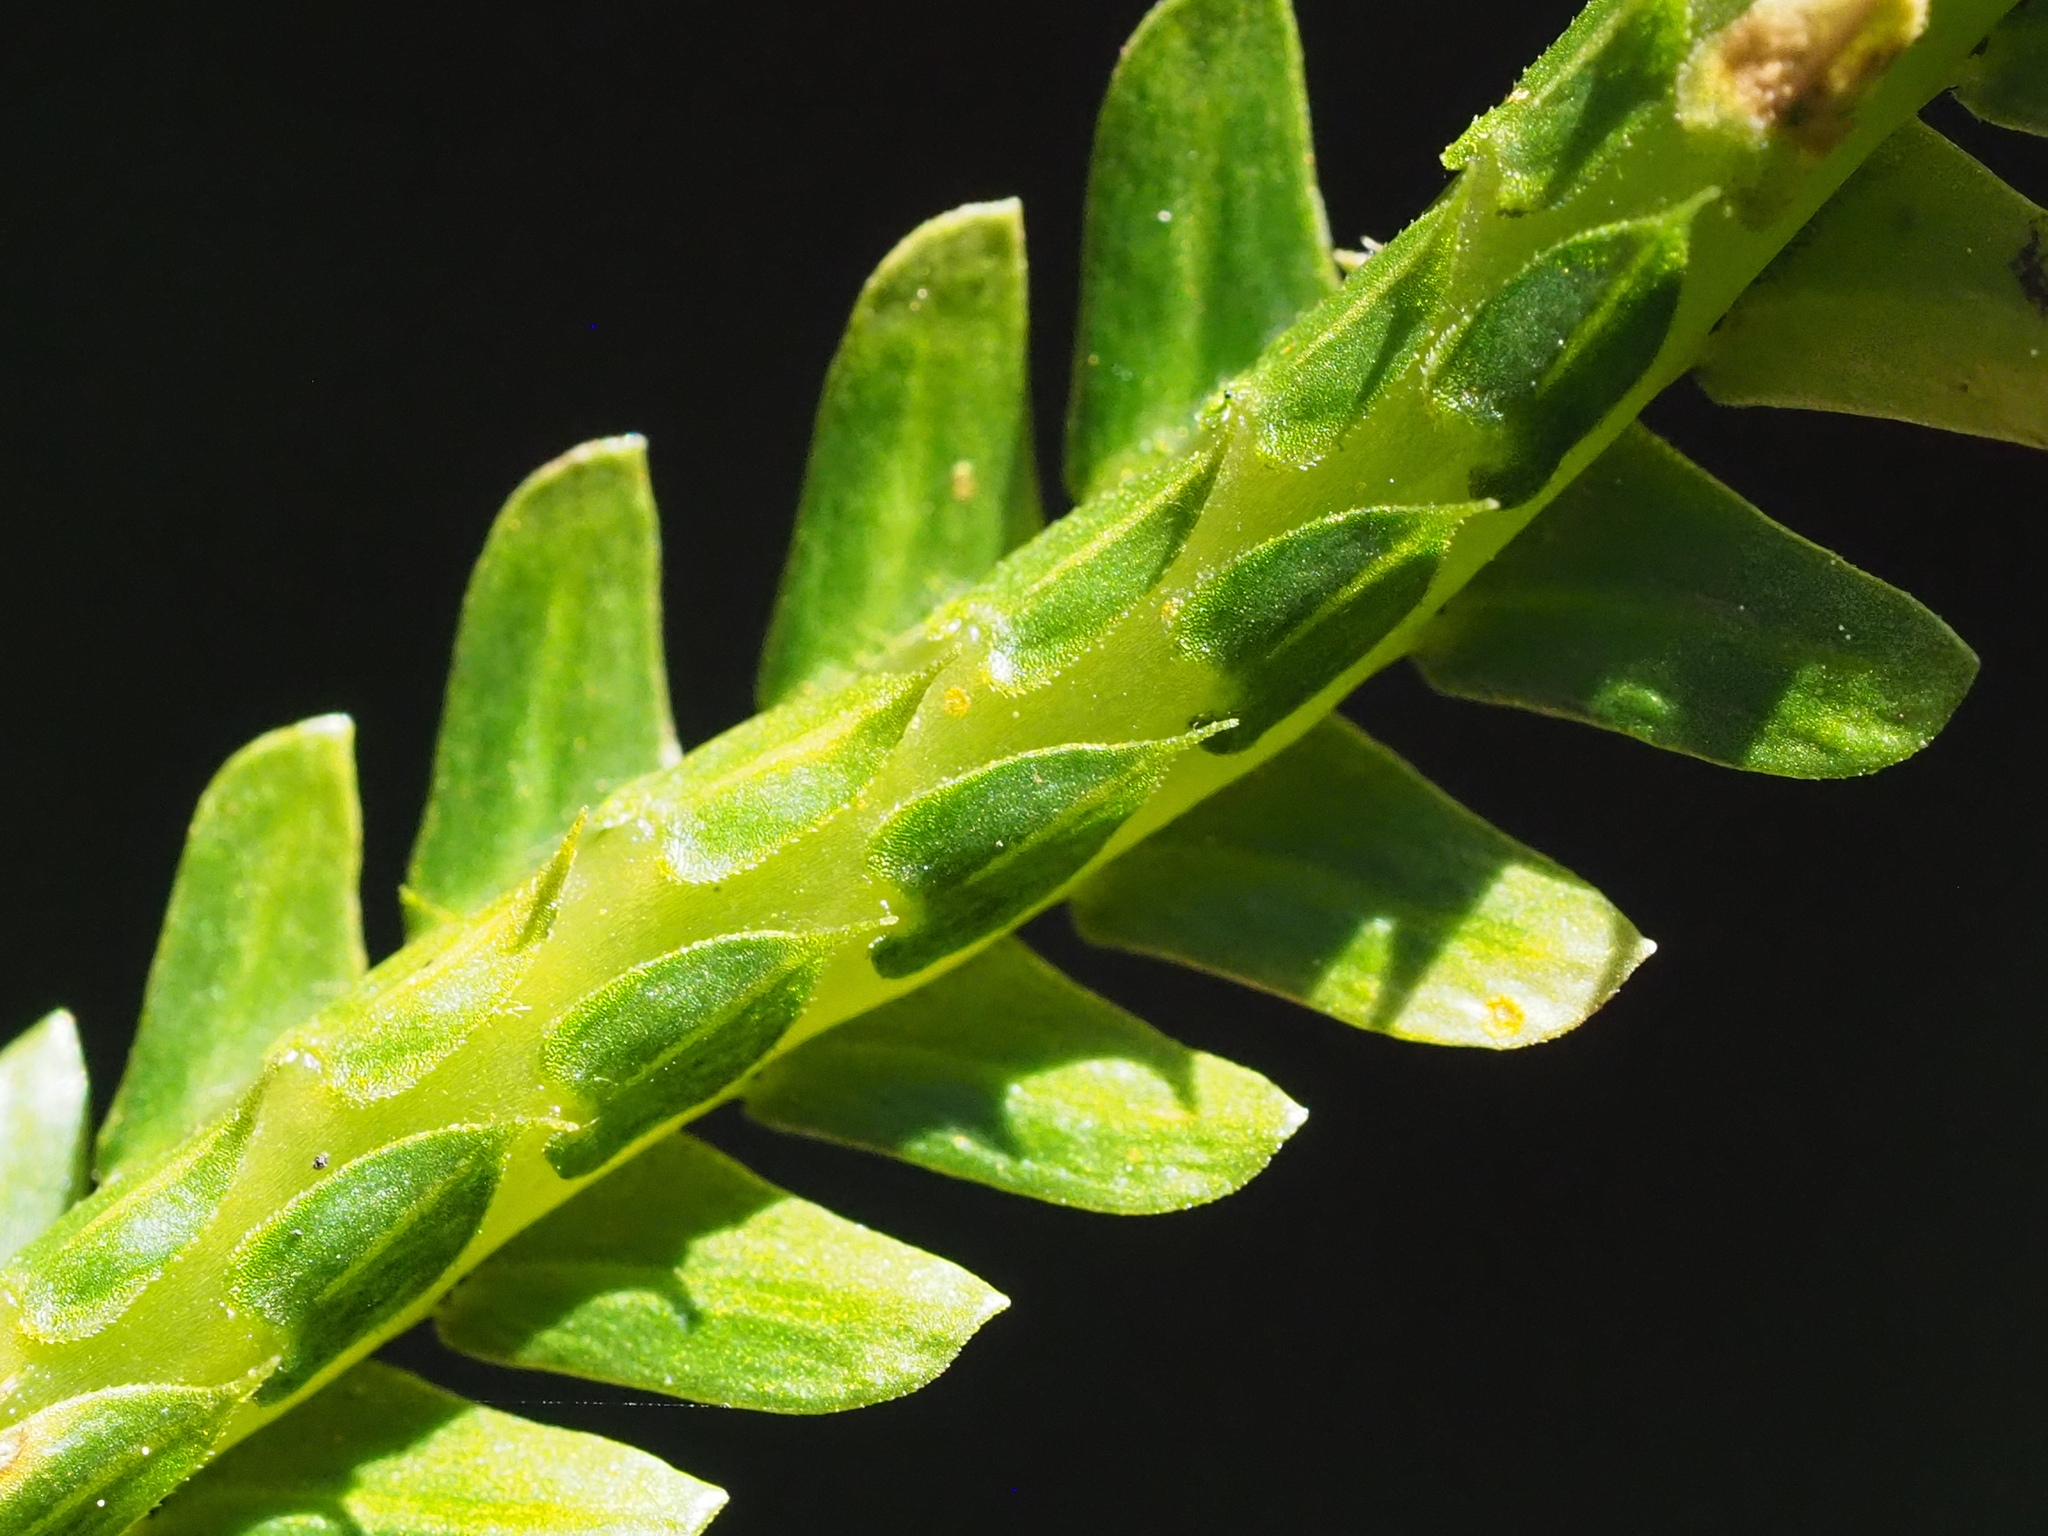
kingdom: Plantae
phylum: Tracheophyta
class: Lycopodiopsida
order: Selaginellales
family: Selaginellaceae
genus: Selaginella
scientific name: Selaginella doederleinii
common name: Greater selaginella
